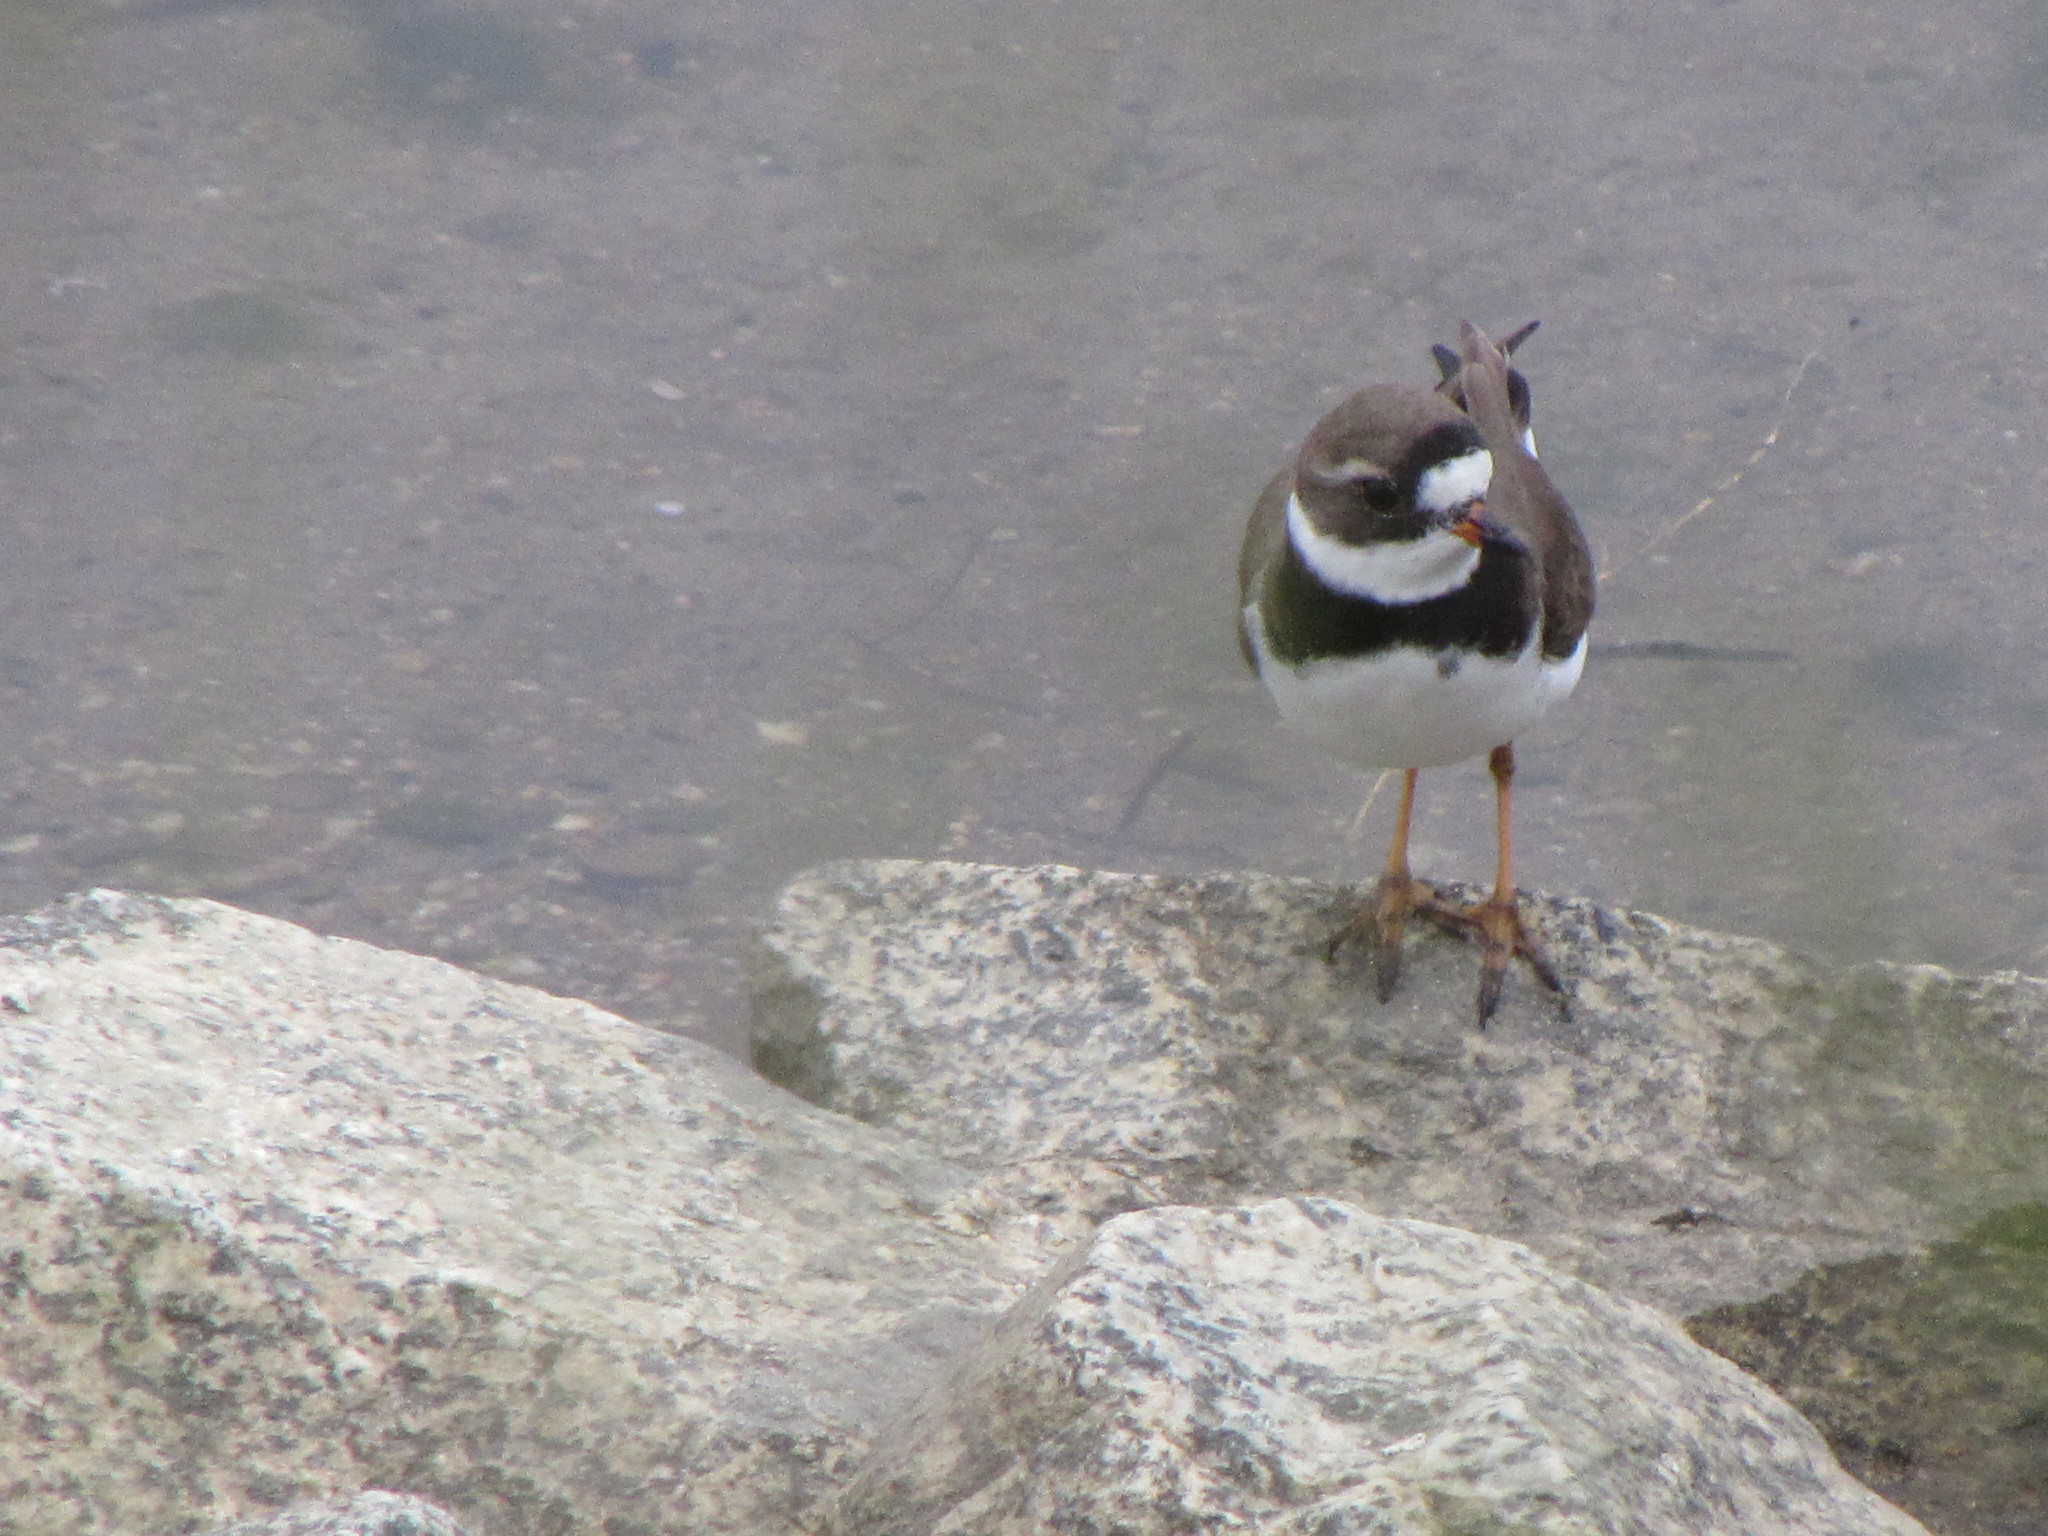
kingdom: Animalia
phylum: Chordata
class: Aves
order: Charadriiformes
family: Charadriidae
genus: Charadrius
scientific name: Charadrius semipalmatus
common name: Semipalmated plover
